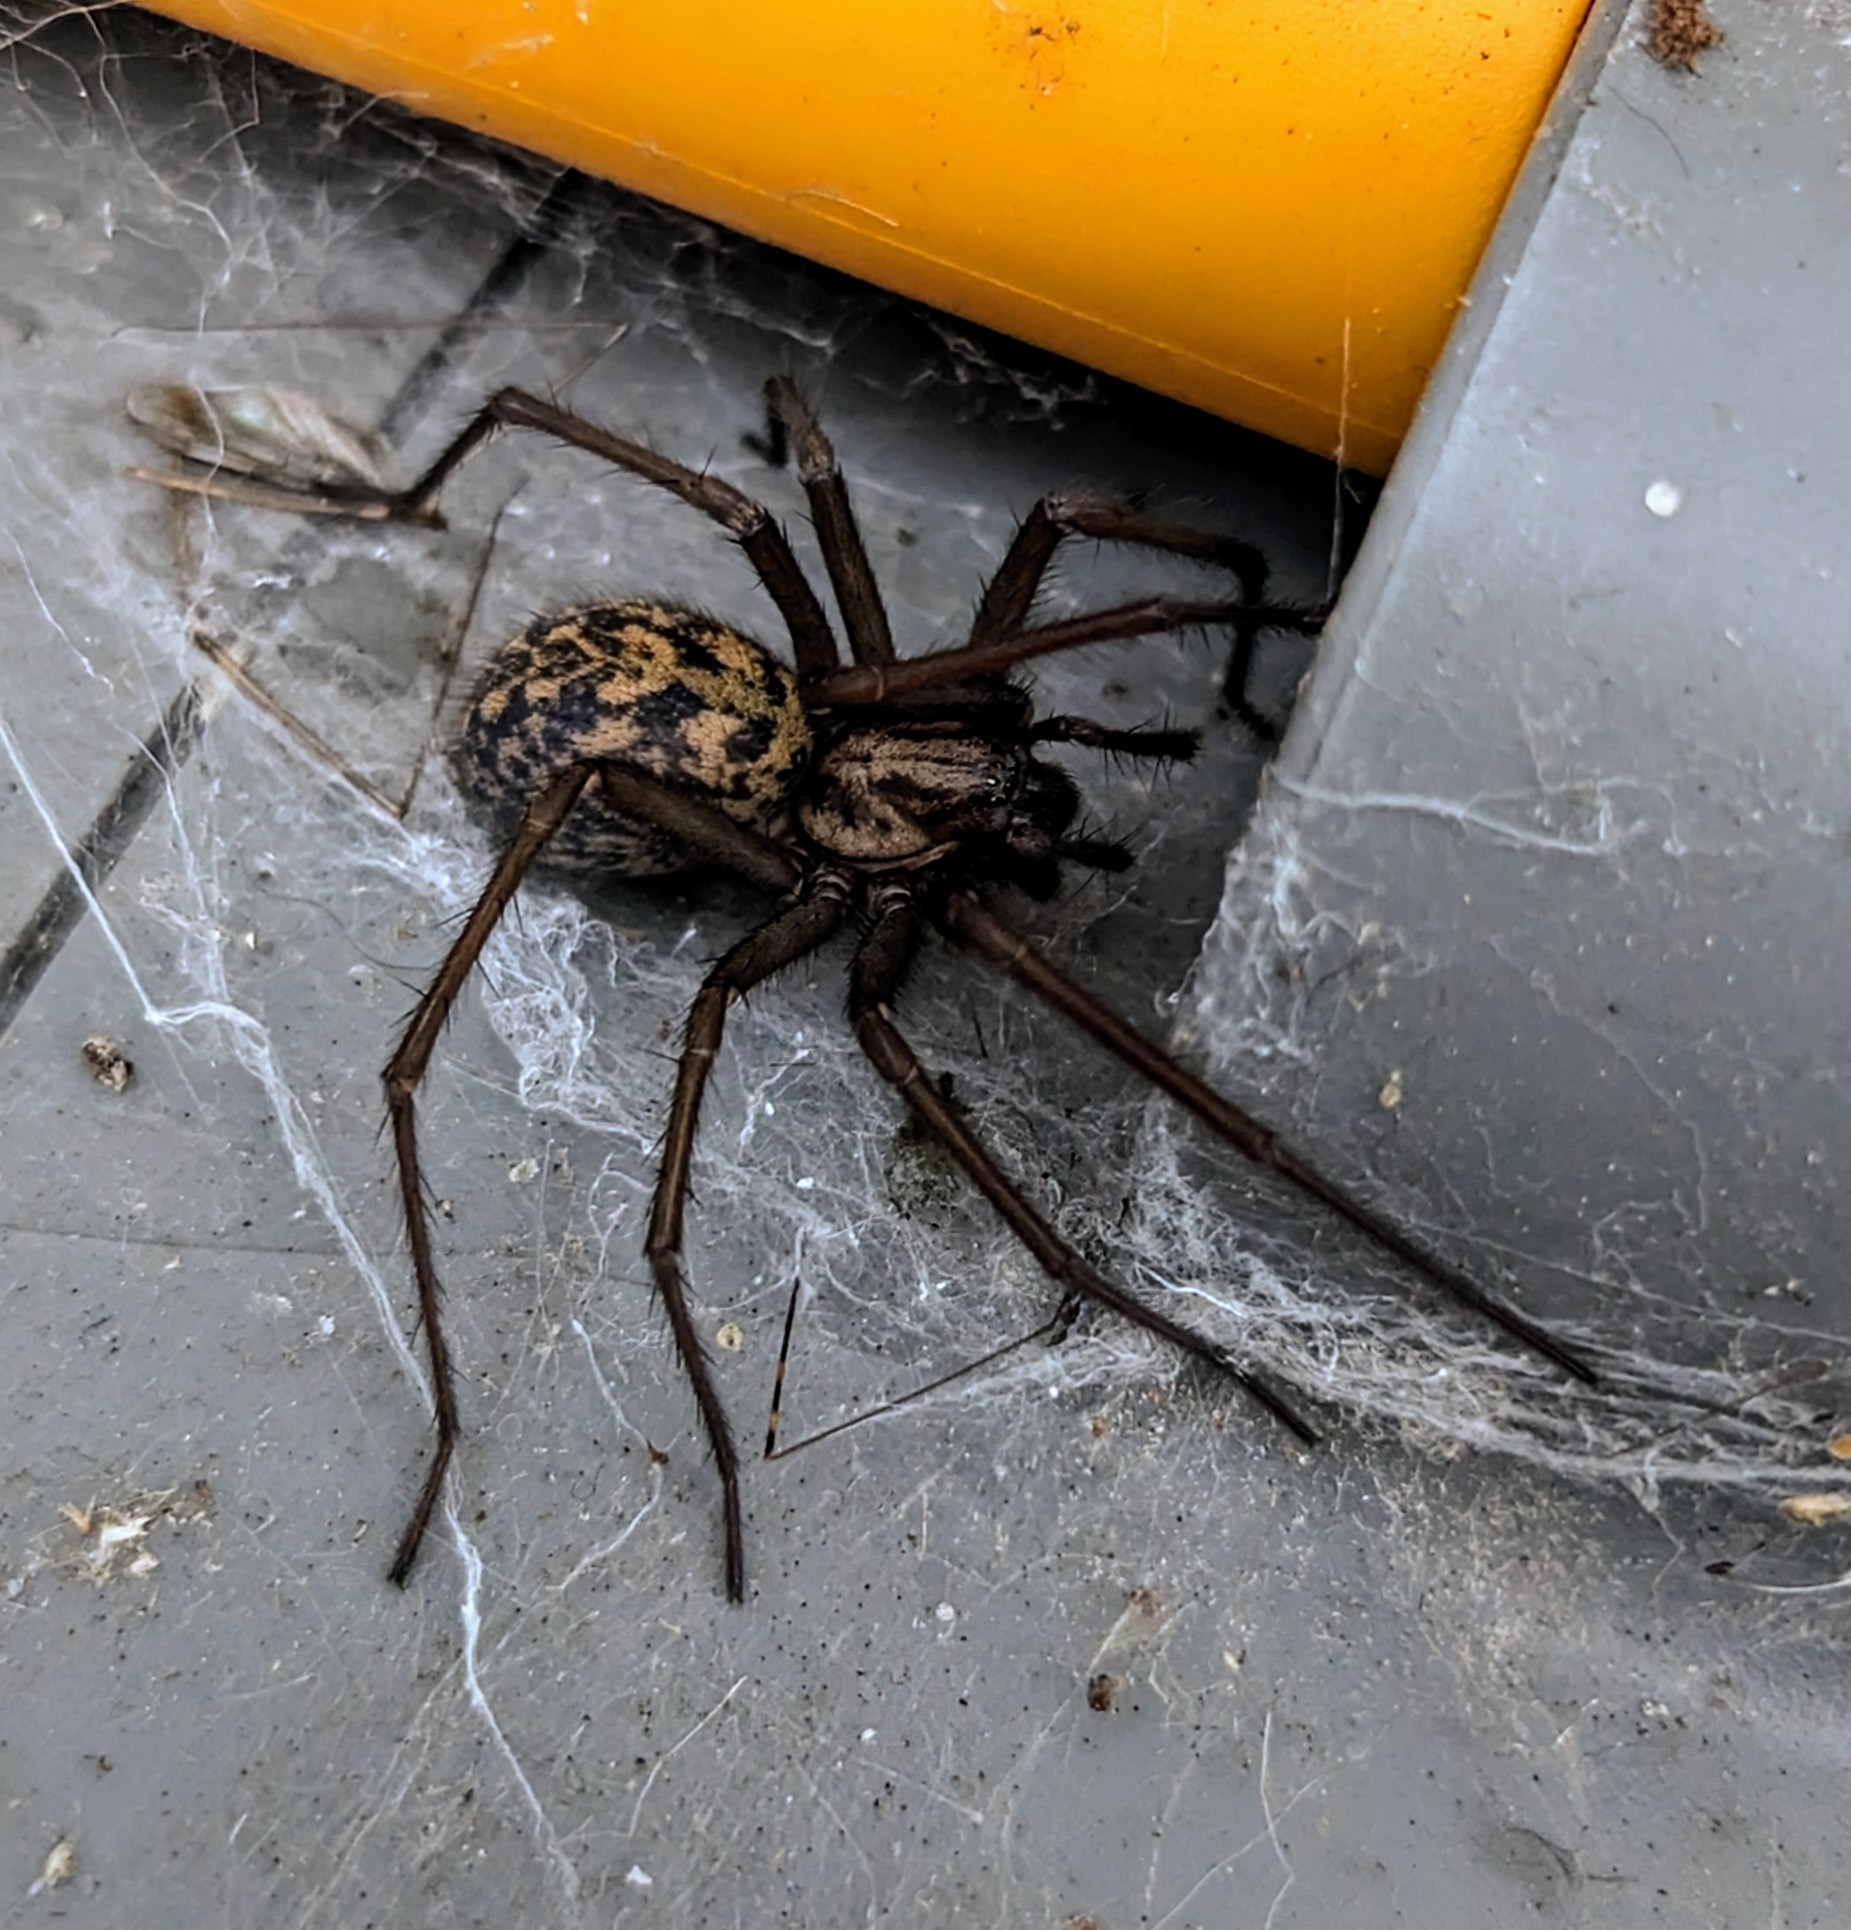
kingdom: Animalia
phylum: Arthropoda
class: Arachnida
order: Araneae
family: Agelenidae
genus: Eratigena
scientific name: Eratigena
